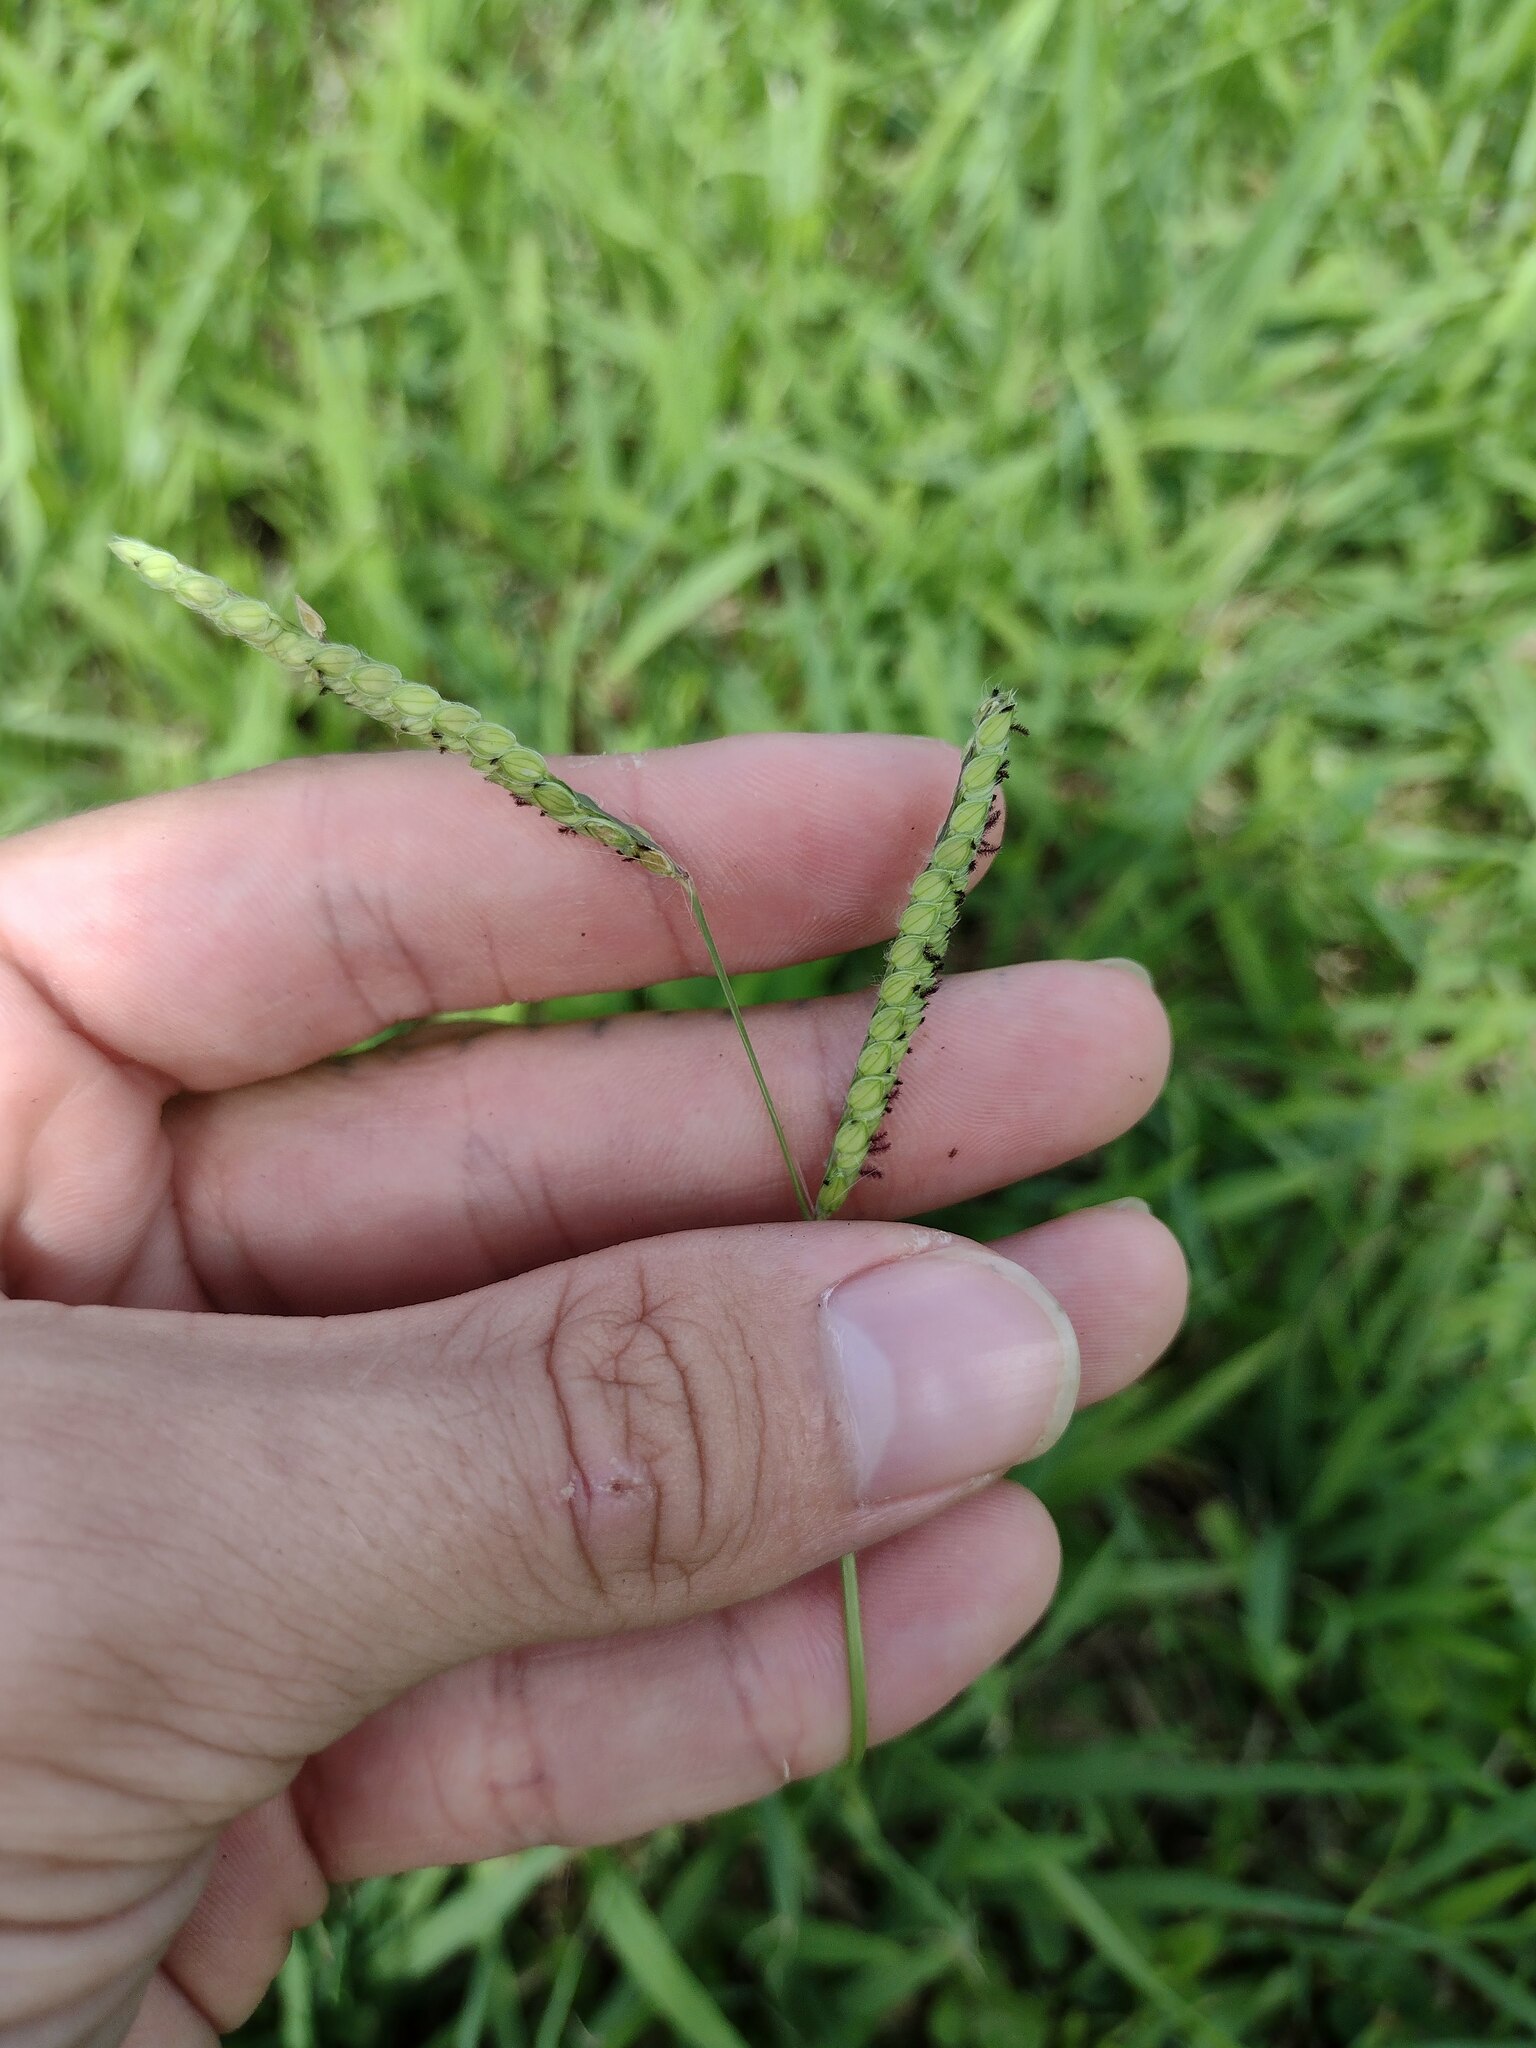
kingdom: Plantae
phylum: Tracheophyta
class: Liliopsida
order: Poales
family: Poaceae
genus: Paspalum
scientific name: Paspalum dilatatum
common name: Dallisgrass
